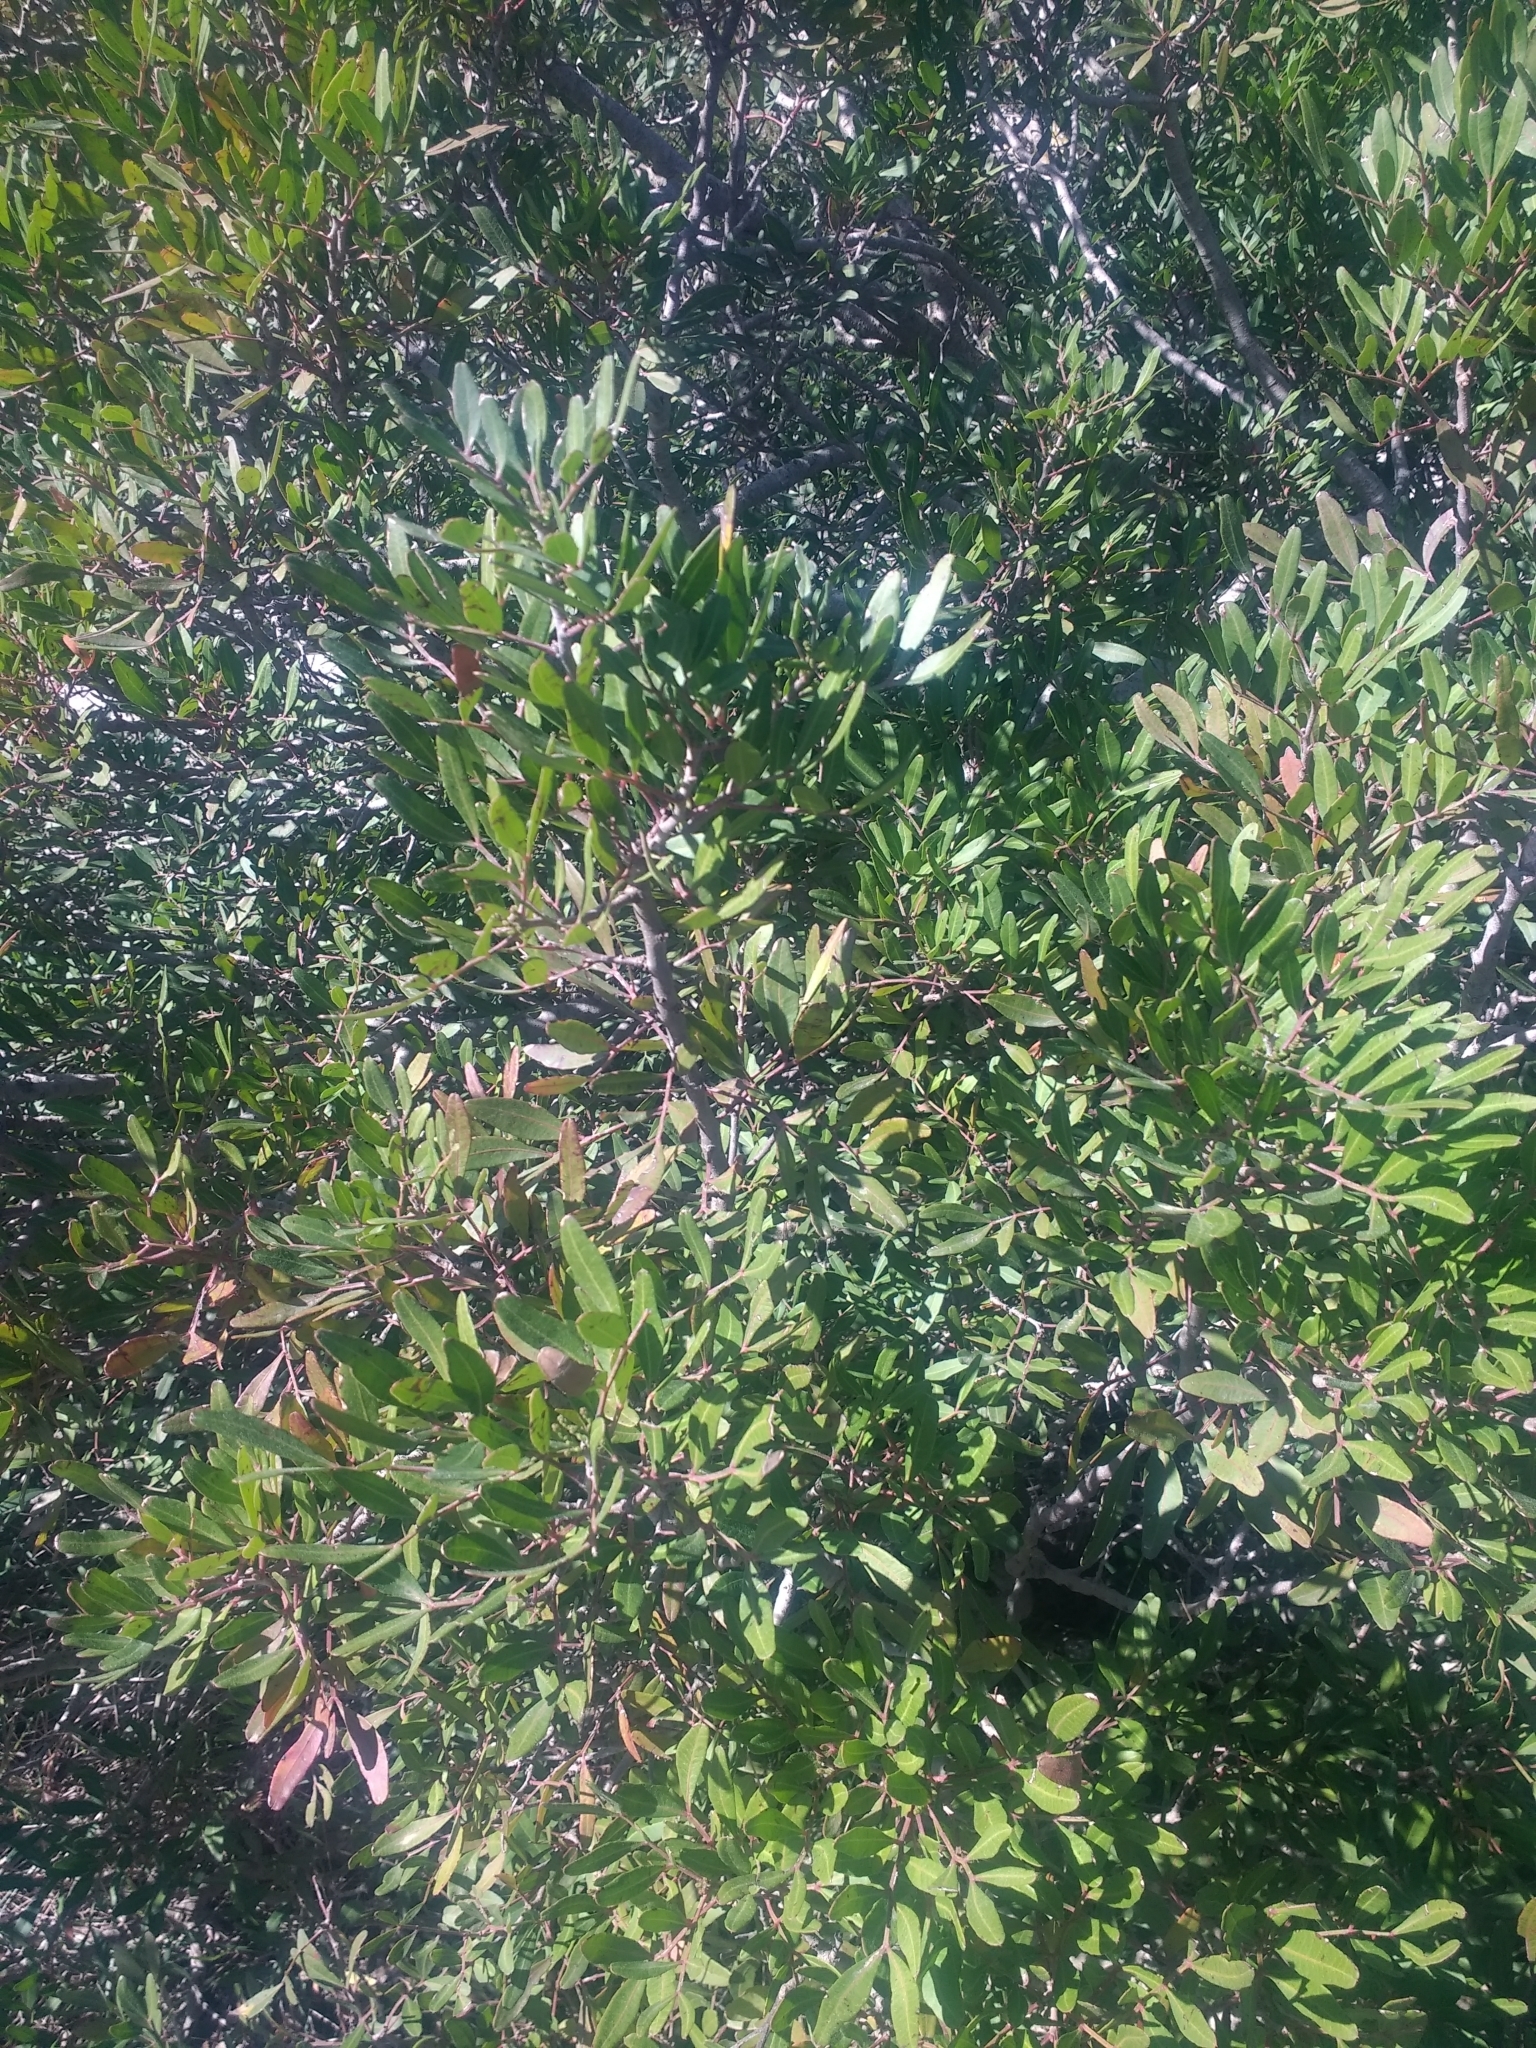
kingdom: Plantae
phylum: Tracheophyta
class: Magnoliopsida
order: Sapindales
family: Anacardiaceae
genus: Pistacia
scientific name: Pistacia lentiscus
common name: Lentisk
